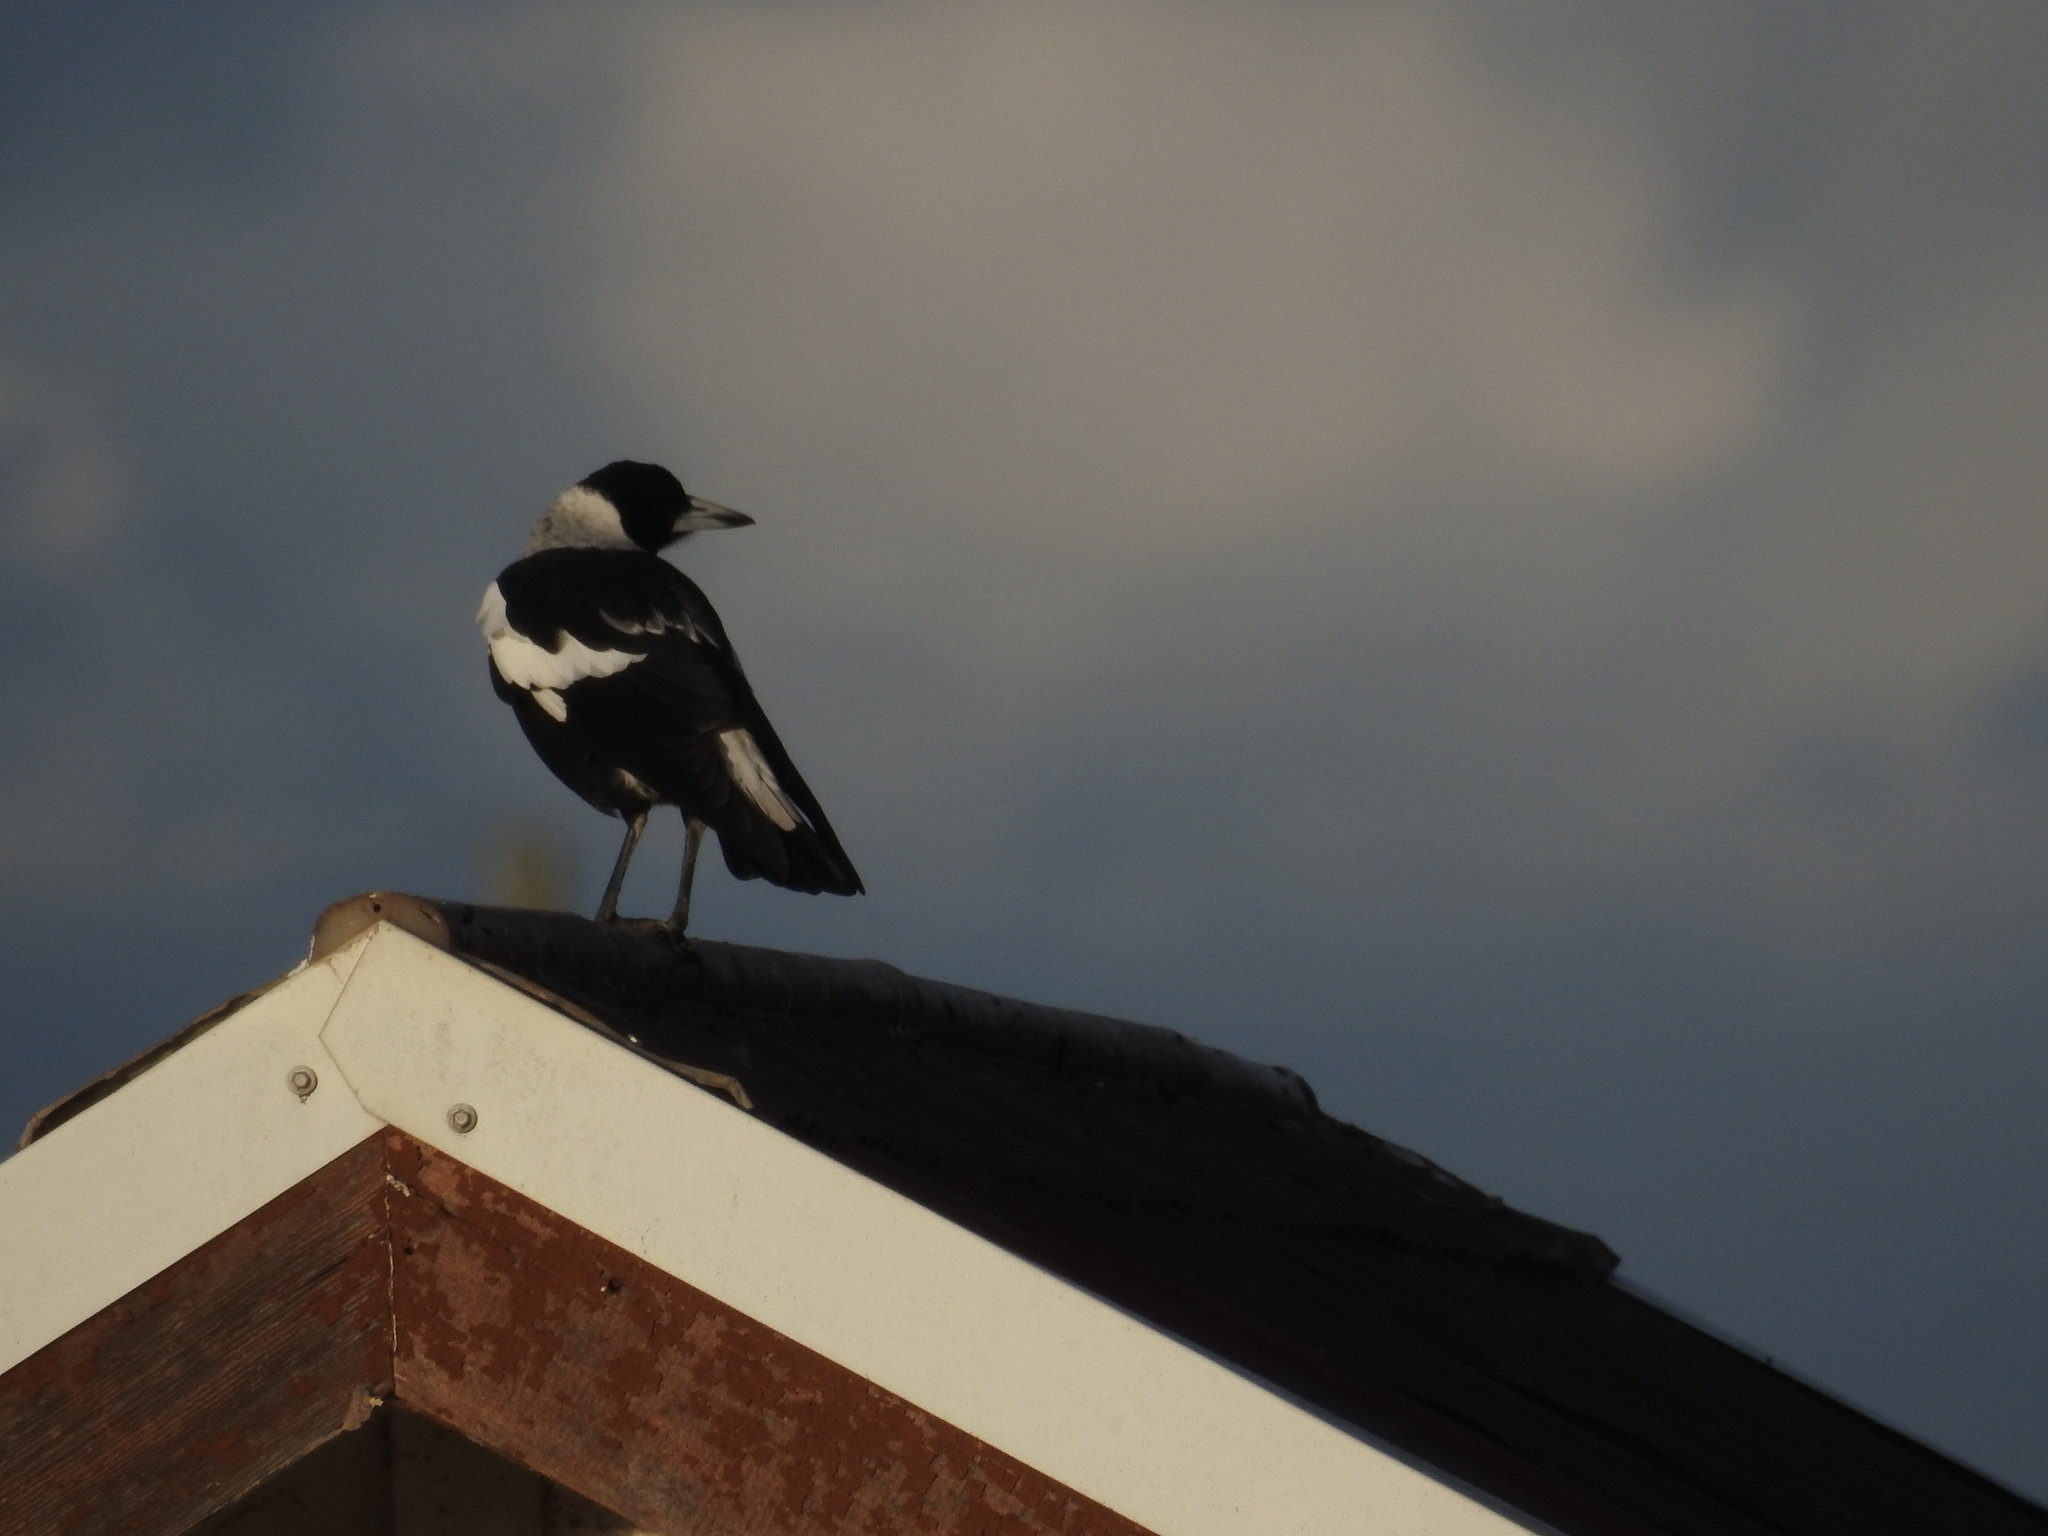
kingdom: Animalia
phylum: Chordata
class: Aves
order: Passeriformes
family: Cracticidae
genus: Gymnorhina
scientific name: Gymnorhina tibicen
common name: Australian magpie
